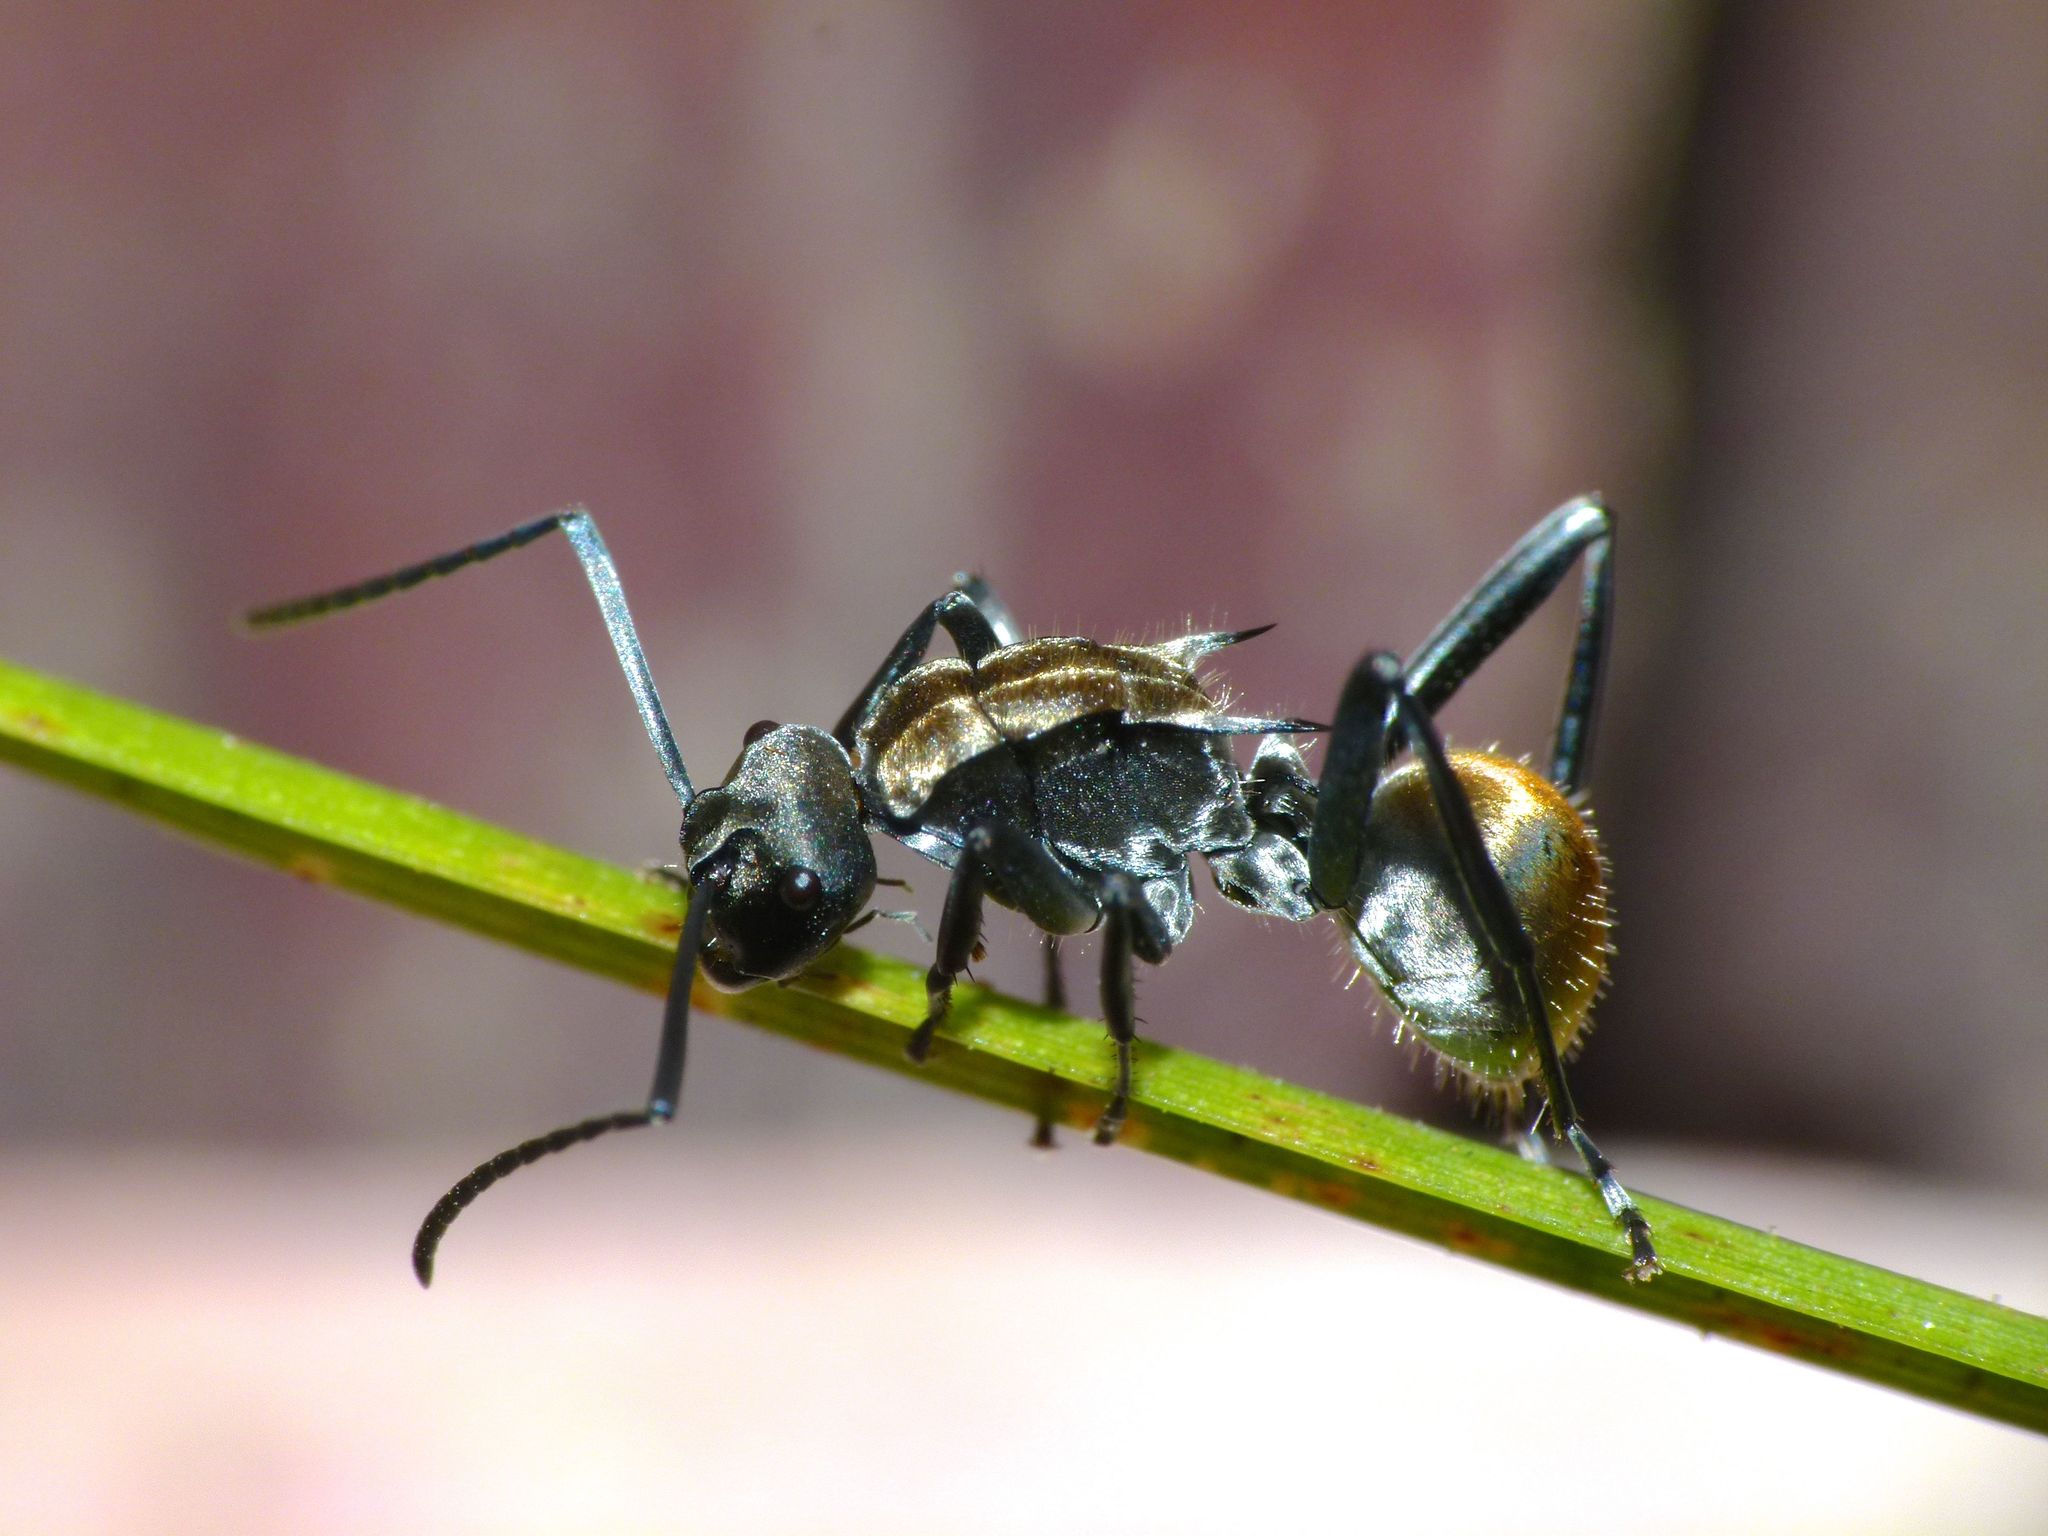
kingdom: Animalia
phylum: Arthropoda
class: Insecta
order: Hymenoptera
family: Formicidae
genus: Polyrhachis
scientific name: Polyrhachis ammon
